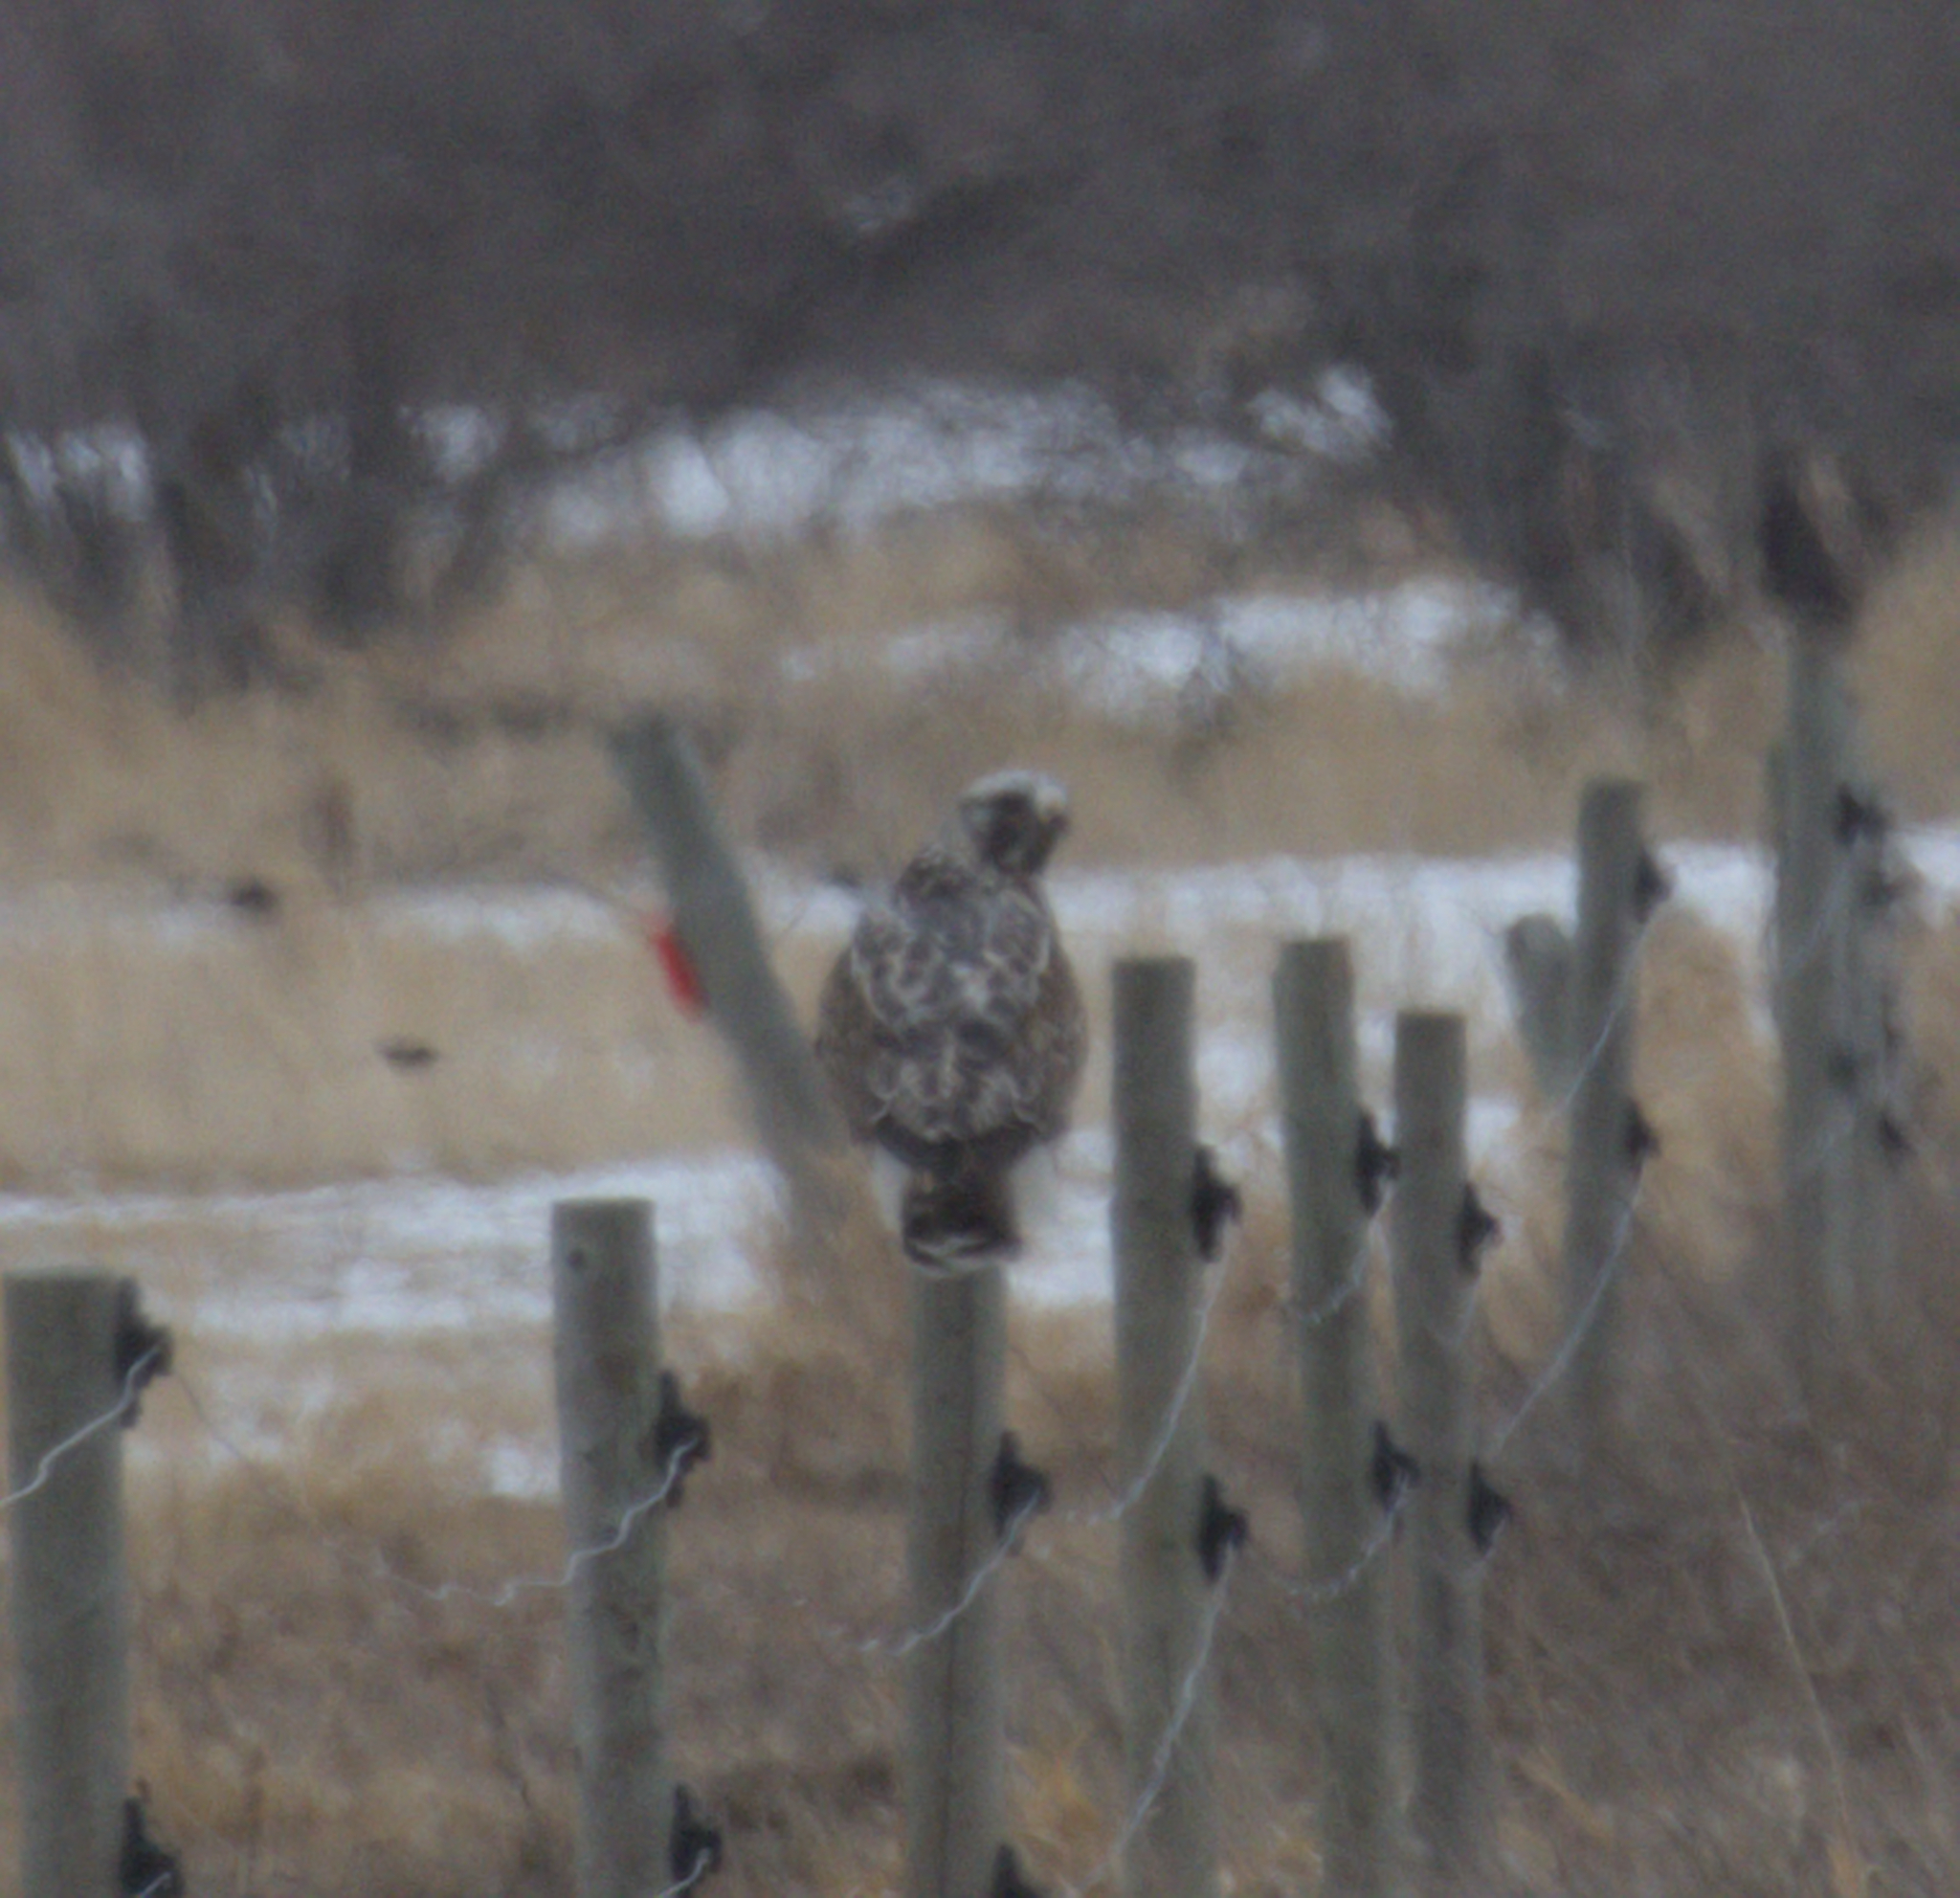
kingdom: Animalia
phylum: Chordata
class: Aves
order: Accipitriformes
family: Accipitridae
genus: Buteo
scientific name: Buteo lagopus
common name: Rough-legged buzzard
